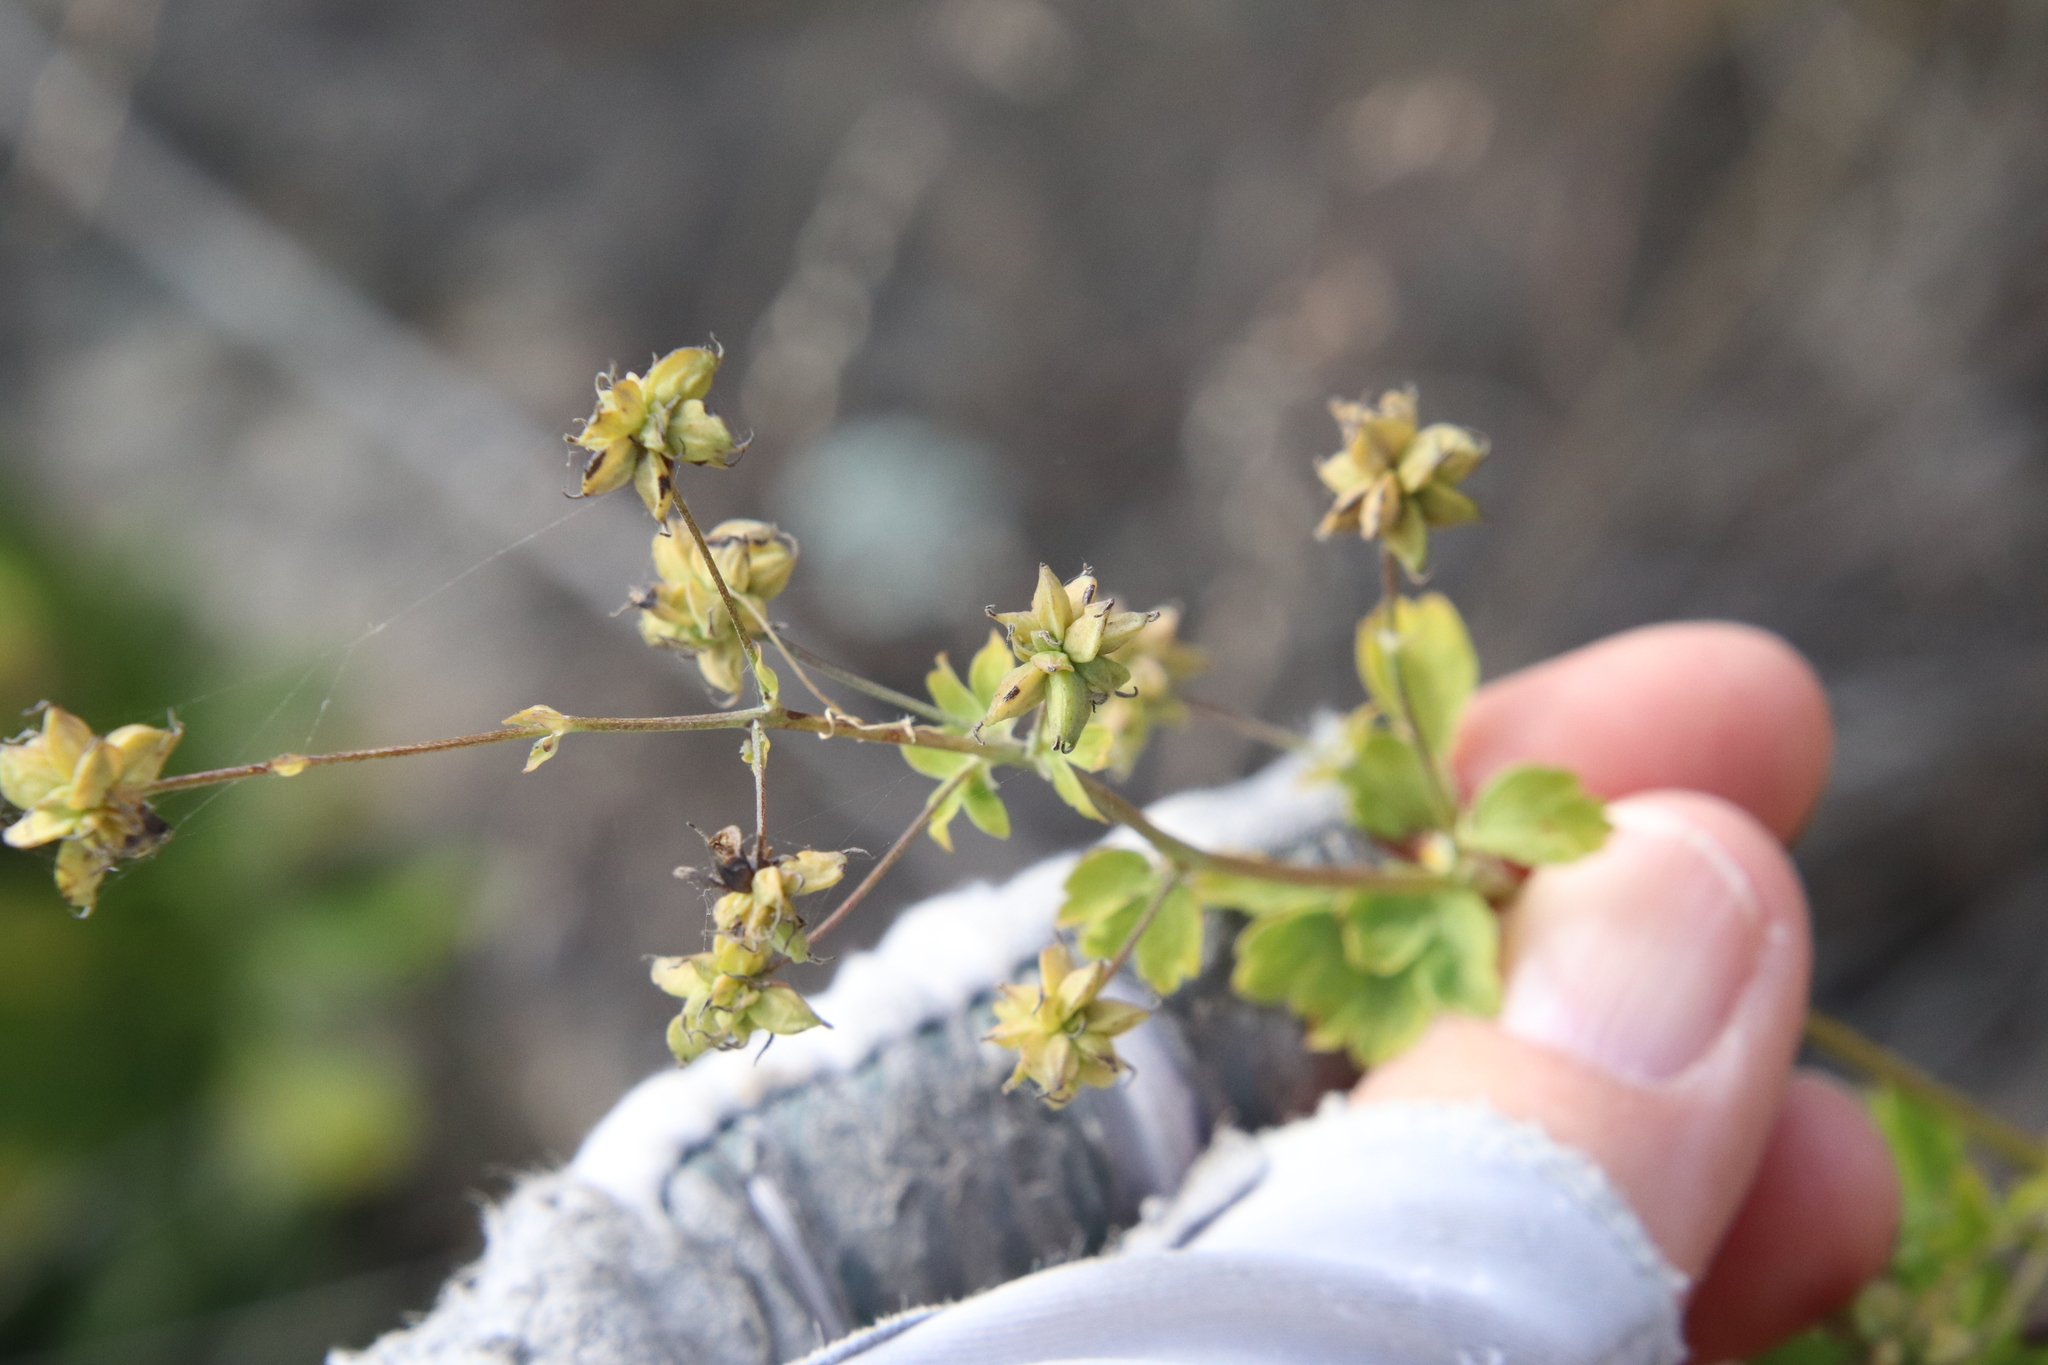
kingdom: Plantae
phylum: Tracheophyta
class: Magnoliopsida
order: Ranunculales
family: Ranunculaceae
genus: Thalictrum
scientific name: Thalictrum fendleri
